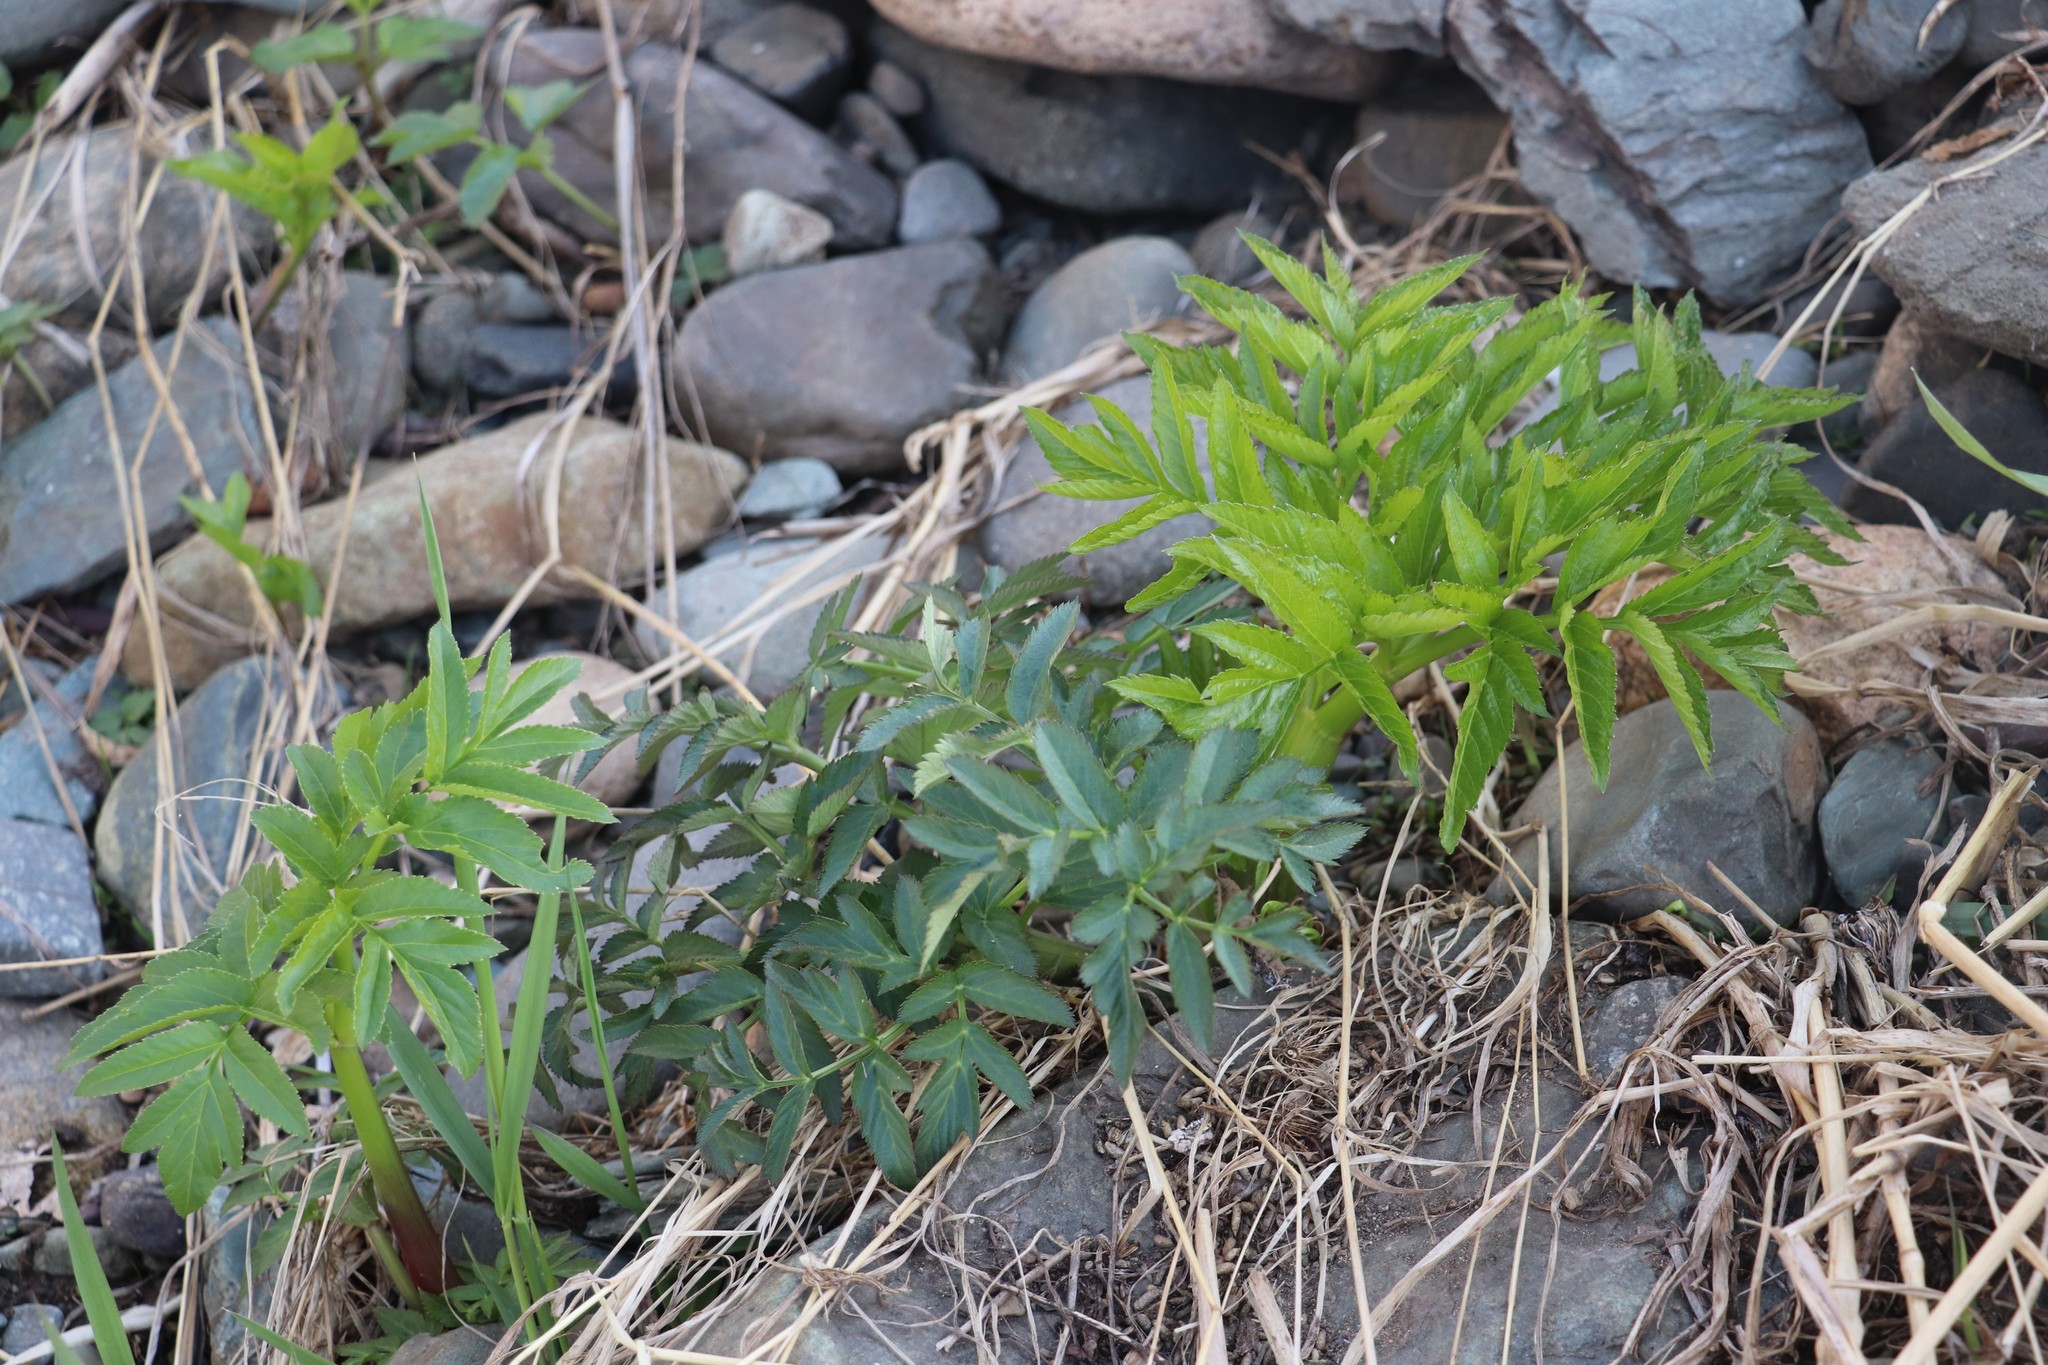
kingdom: Plantae
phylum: Tracheophyta
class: Magnoliopsida
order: Apiales
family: Apiaceae
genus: Angelica
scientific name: Angelica decurrens
